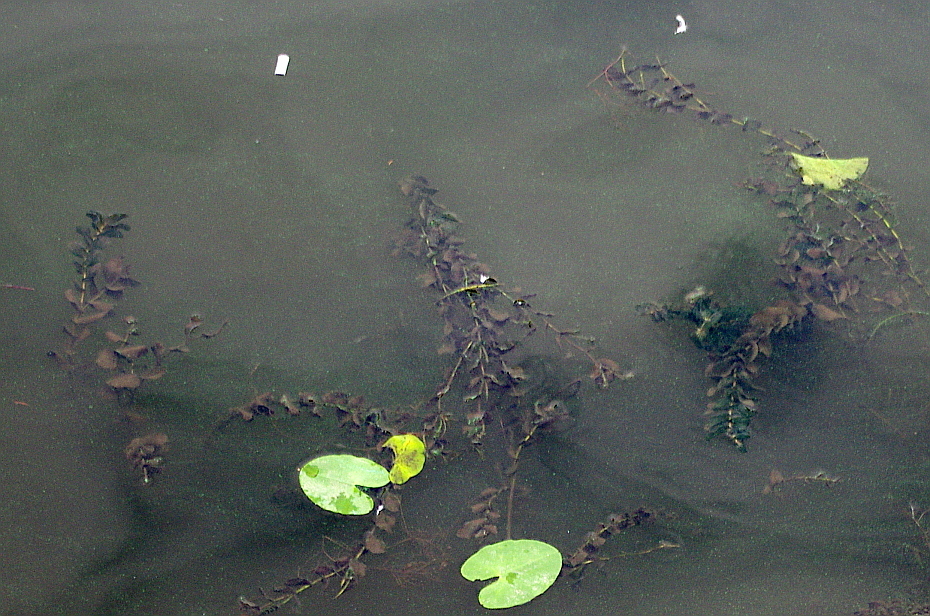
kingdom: Plantae
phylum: Tracheophyta
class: Liliopsida
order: Alismatales
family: Potamogetonaceae
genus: Potamogeton
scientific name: Potamogeton perfoliatus
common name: Perfoliate pondweed
